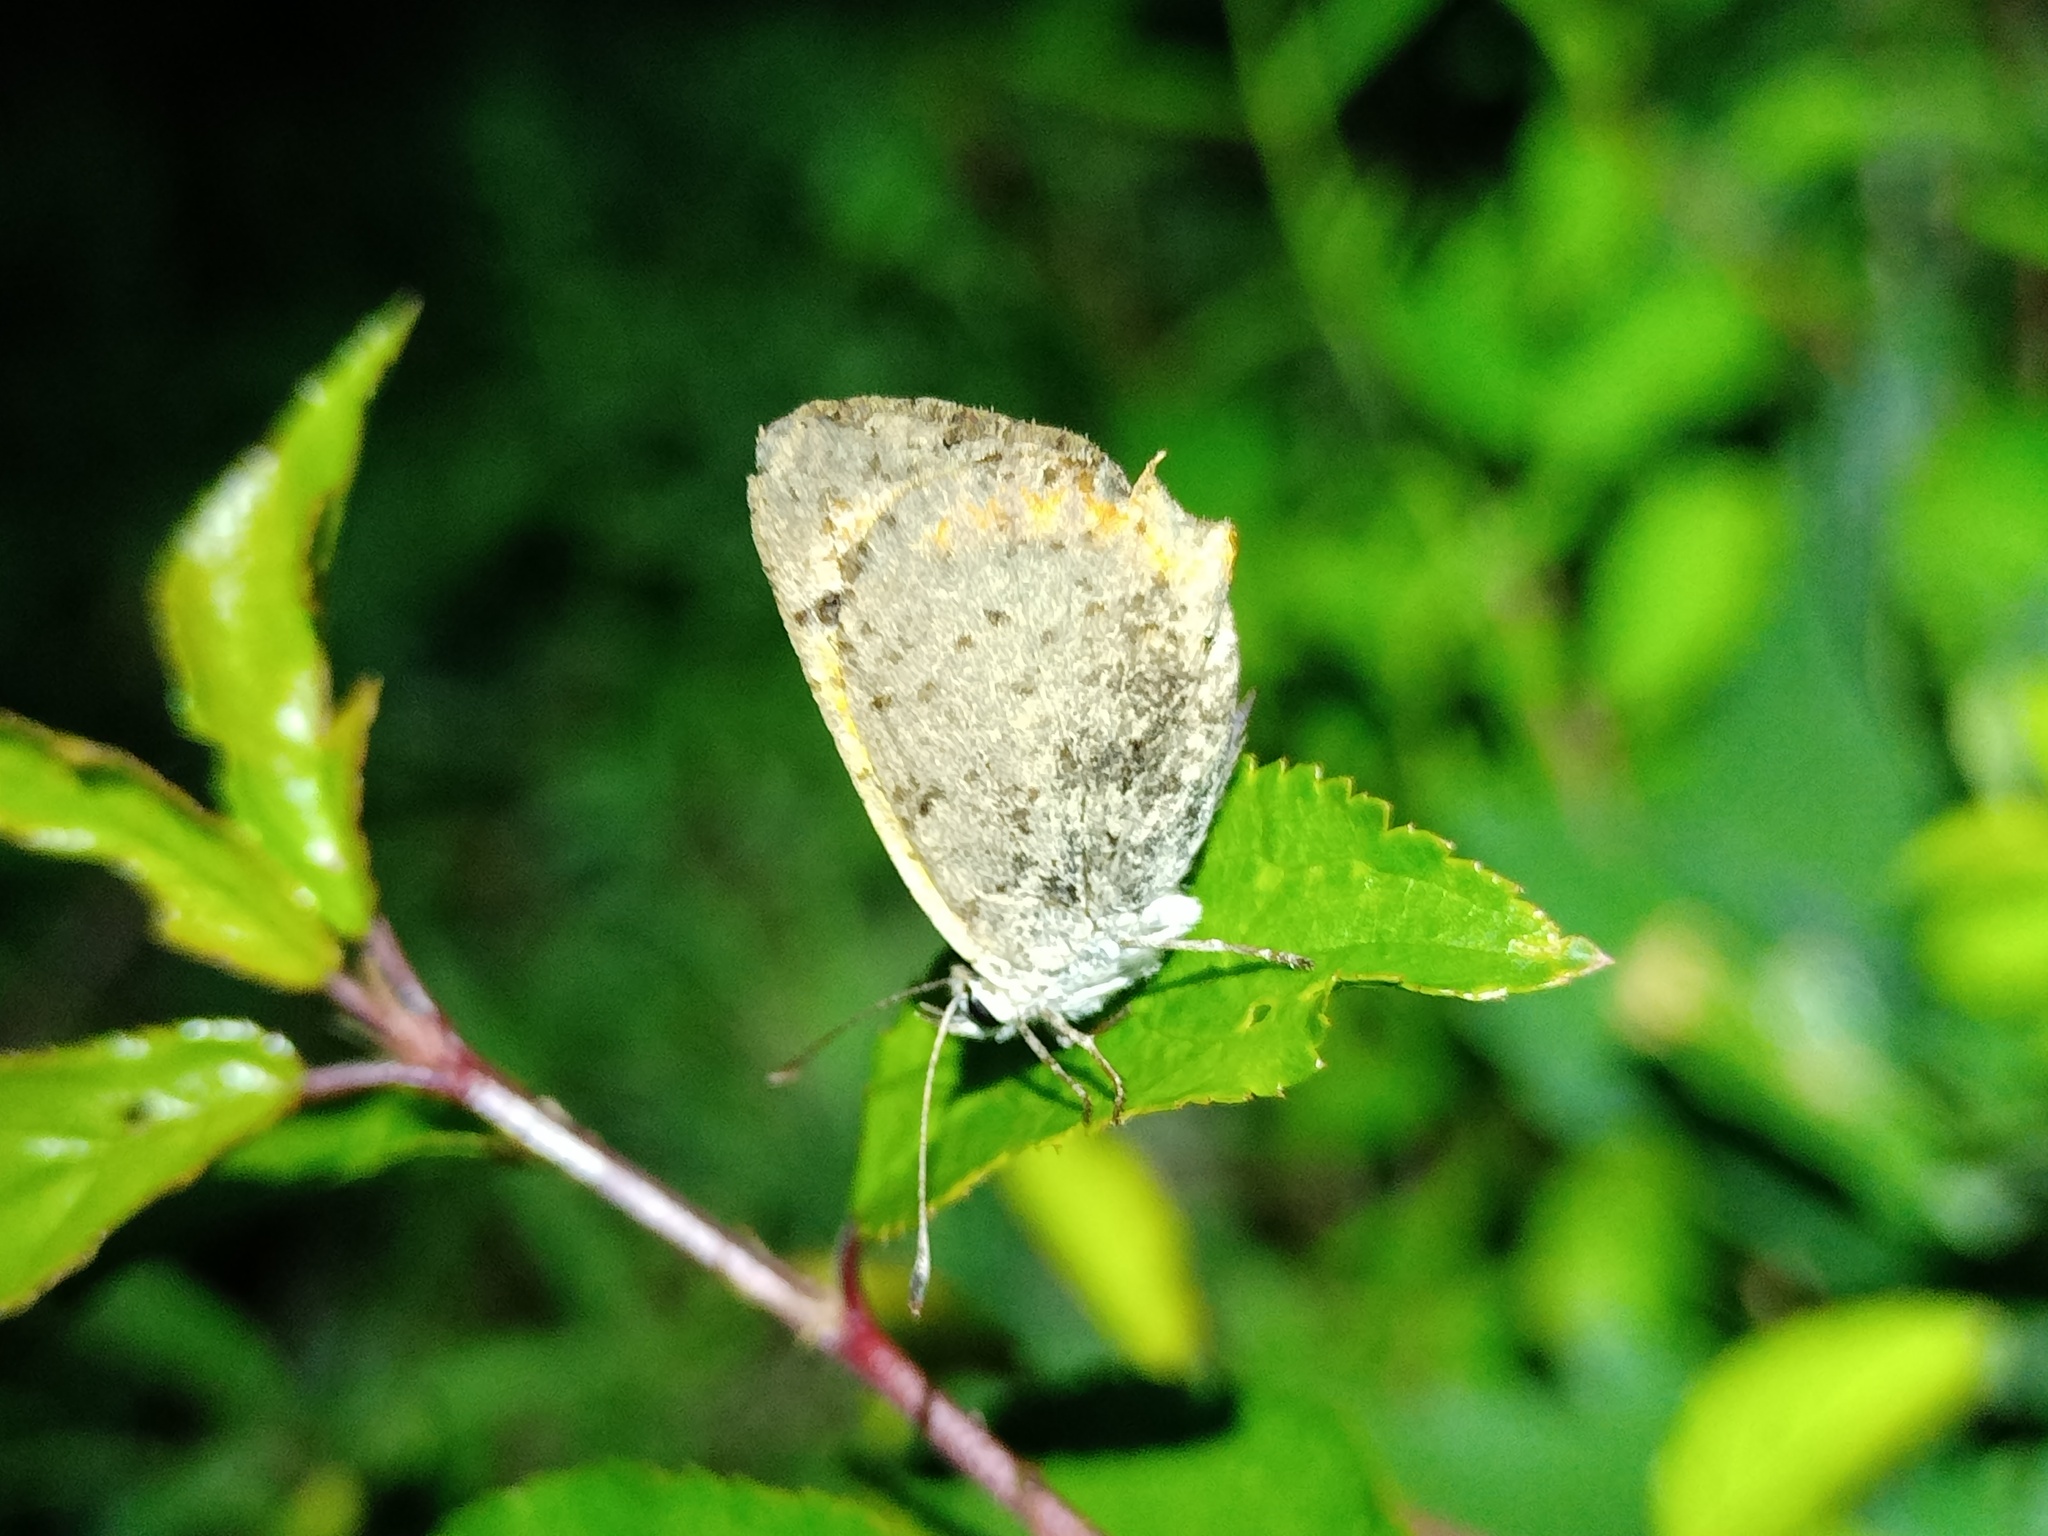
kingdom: Animalia
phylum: Arthropoda
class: Insecta
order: Lepidoptera
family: Lycaenidae
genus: Lycaena
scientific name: Lycaena phlaeas
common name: Small copper
